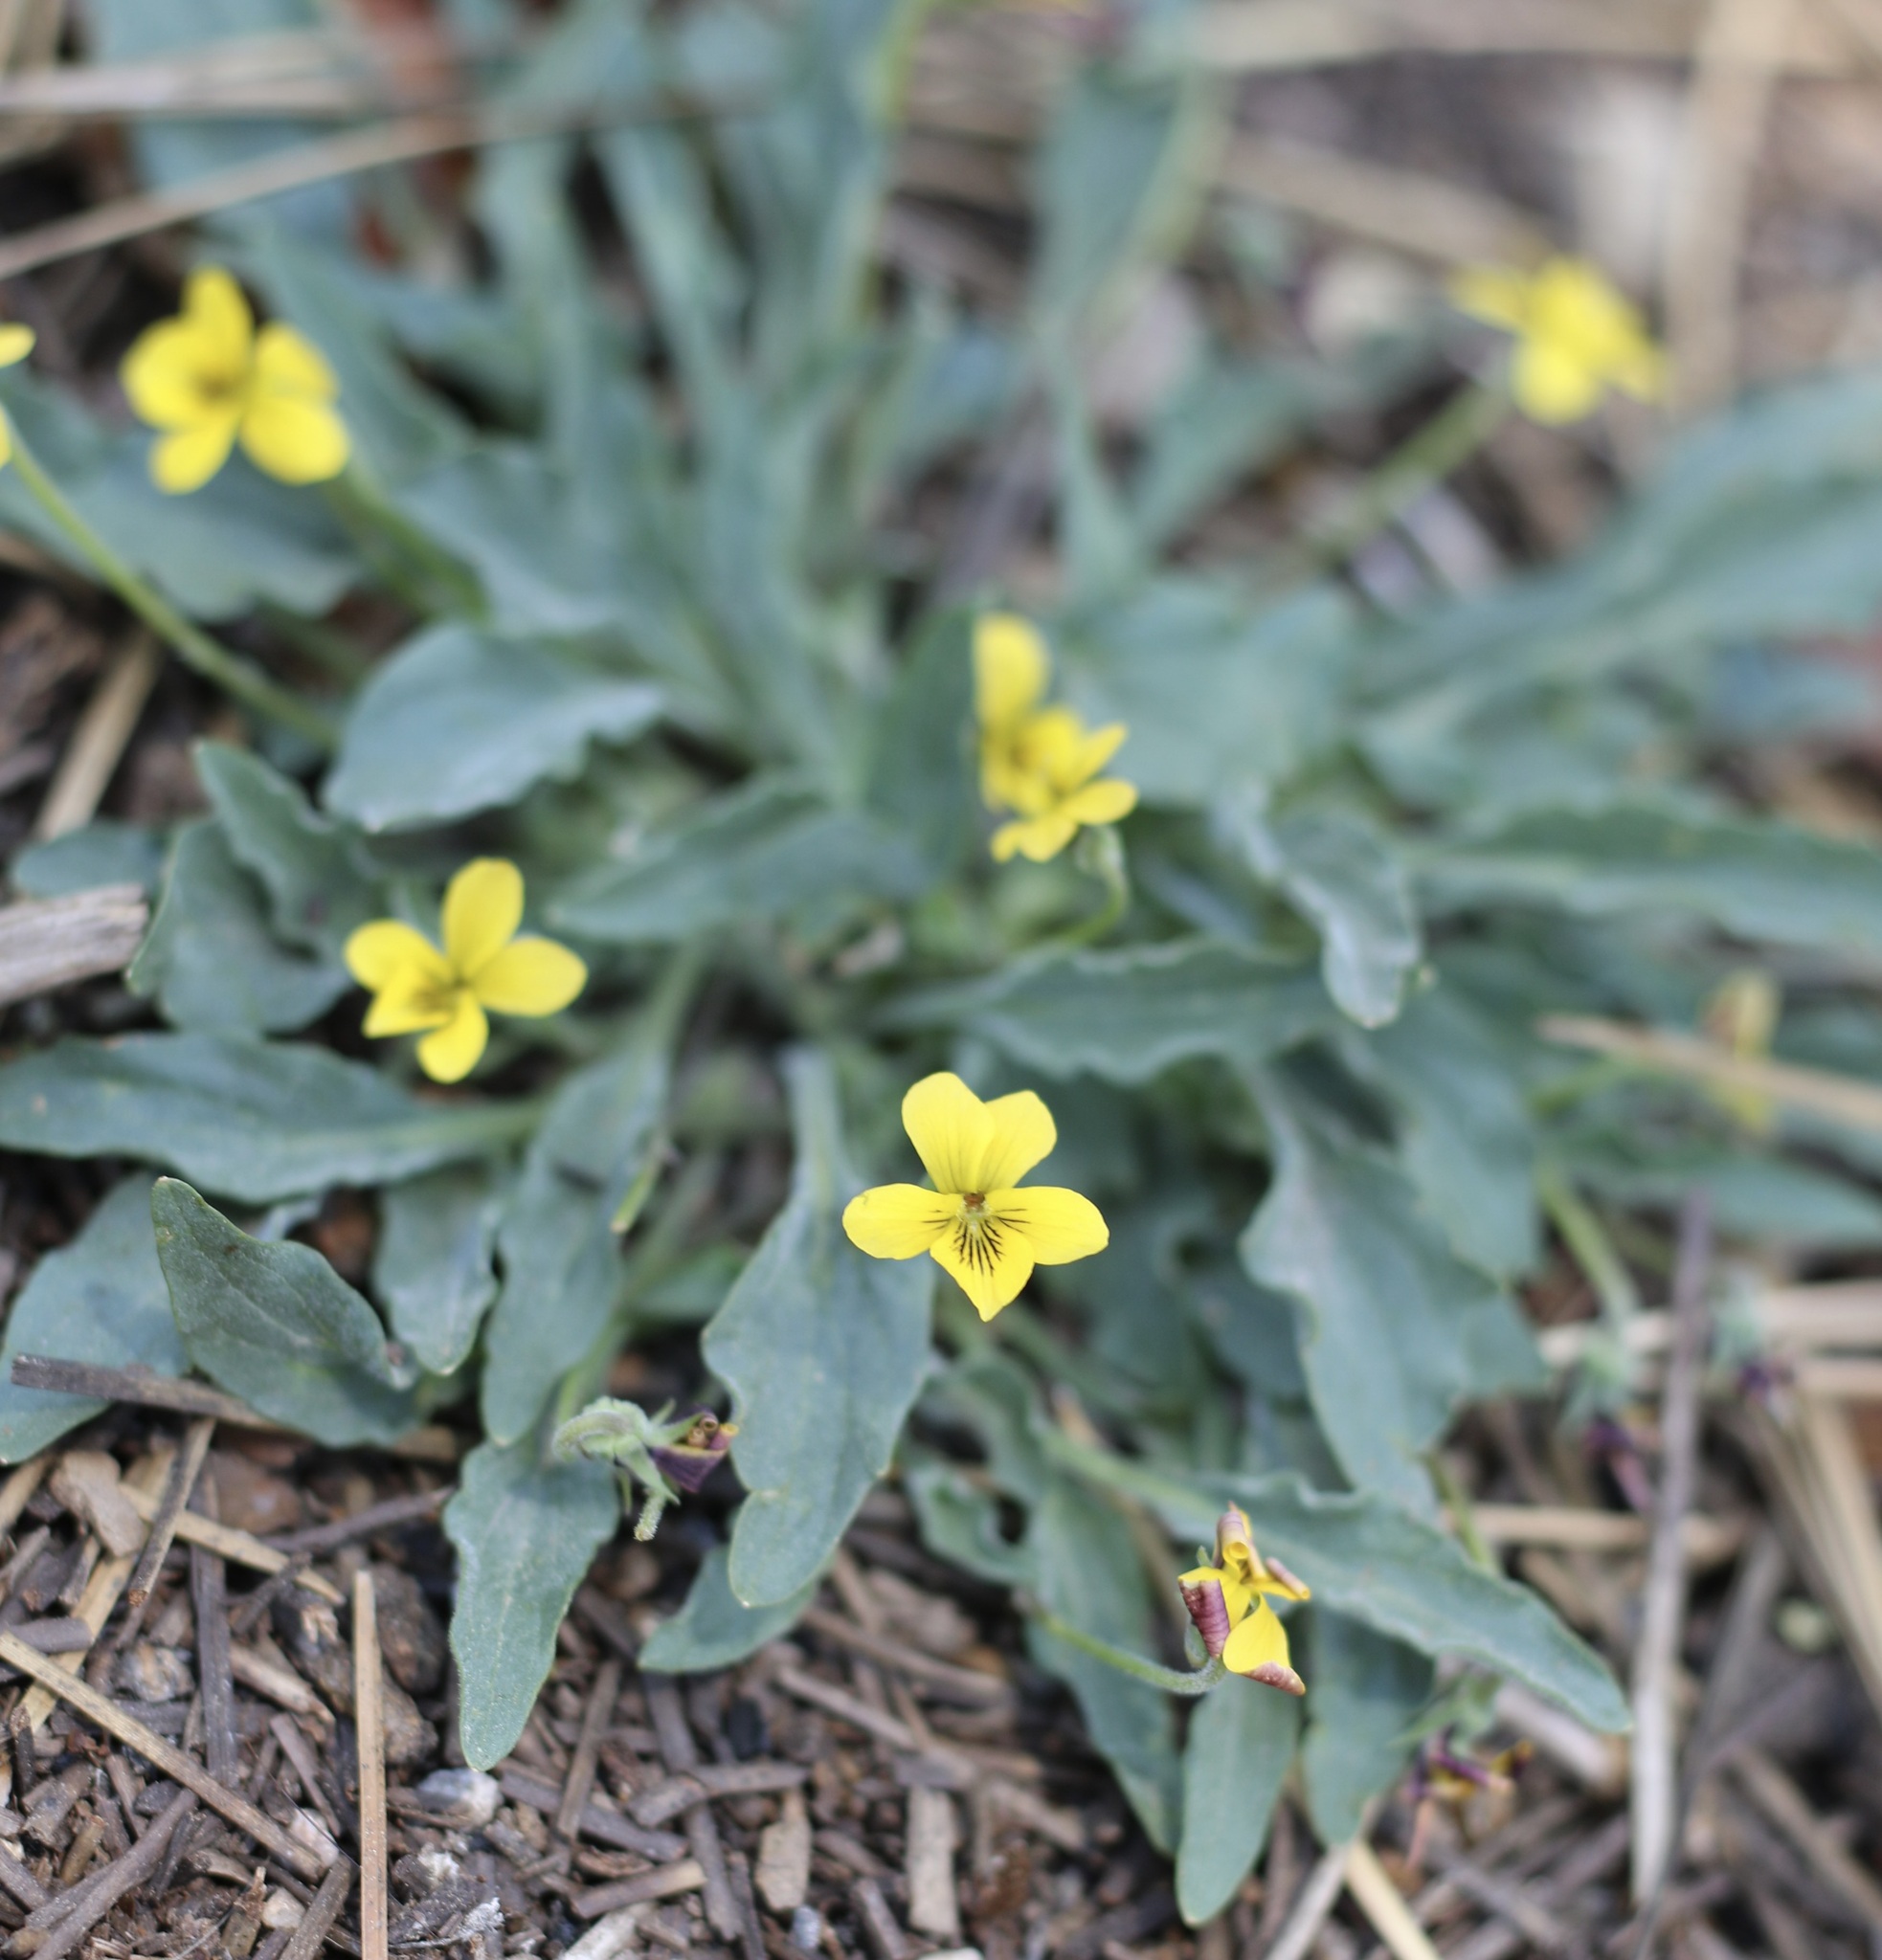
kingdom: Plantae
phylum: Tracheophyta
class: Magnoliopsida
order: Malpighiales
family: Violaceae
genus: Viola
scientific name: Viola pinetorum
